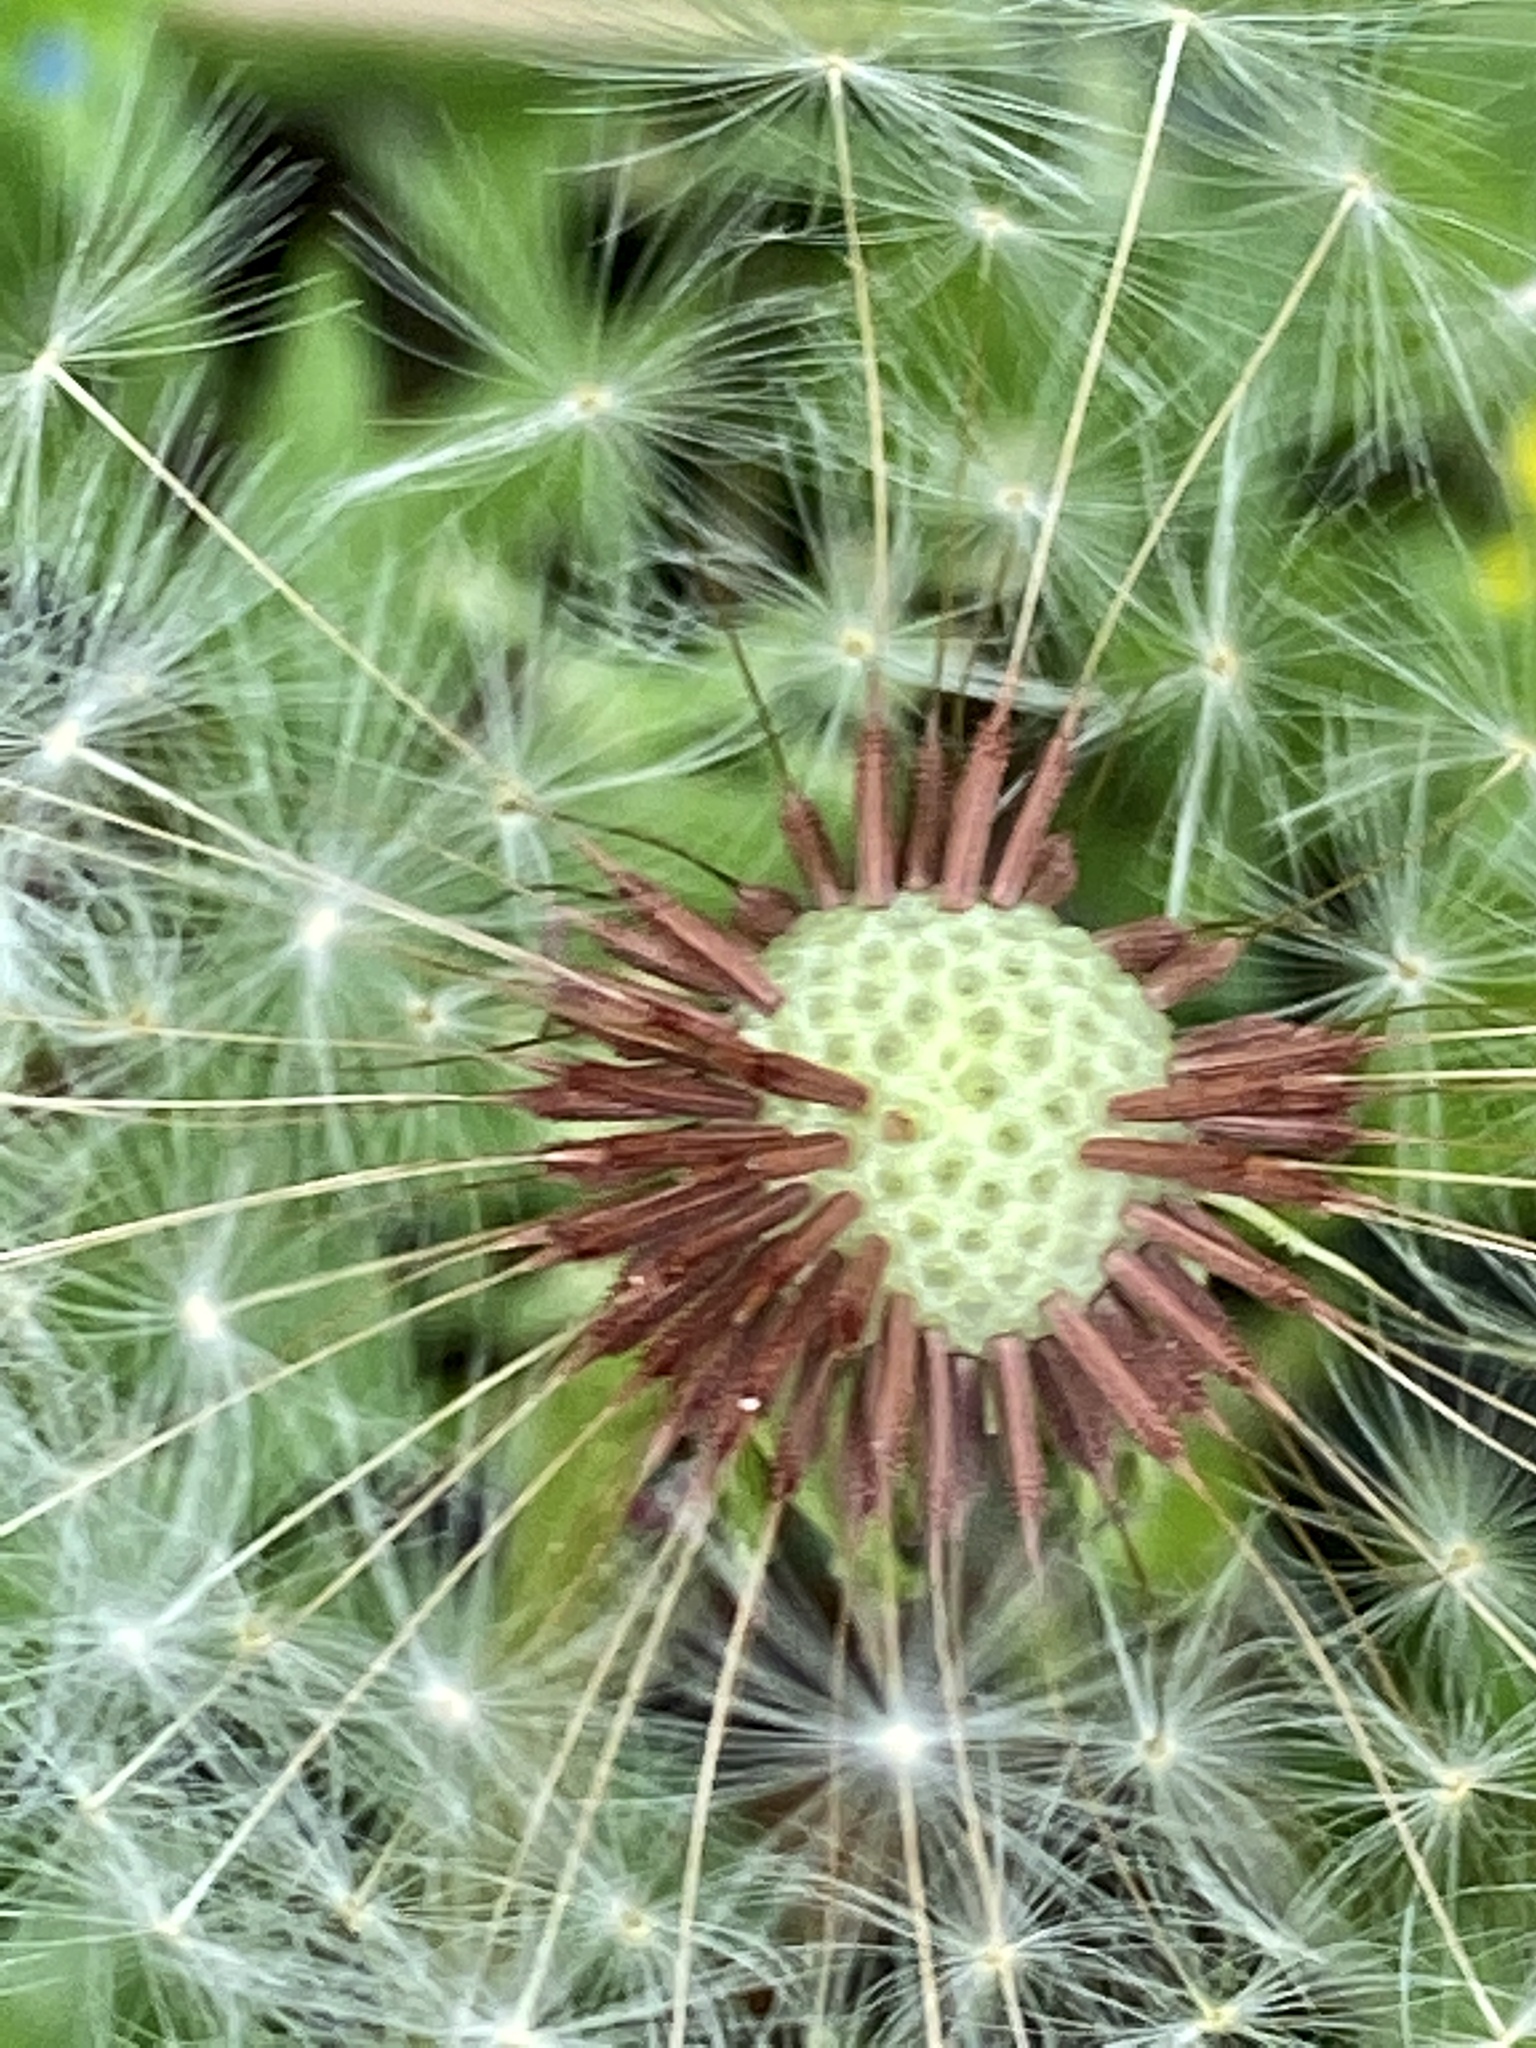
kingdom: Plantae
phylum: Tracheophyta
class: Magnoliopsida
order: Asterales
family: Asteraceae
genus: Taraxacum
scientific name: Taraxacum erythrospermum
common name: Rock dandelion
